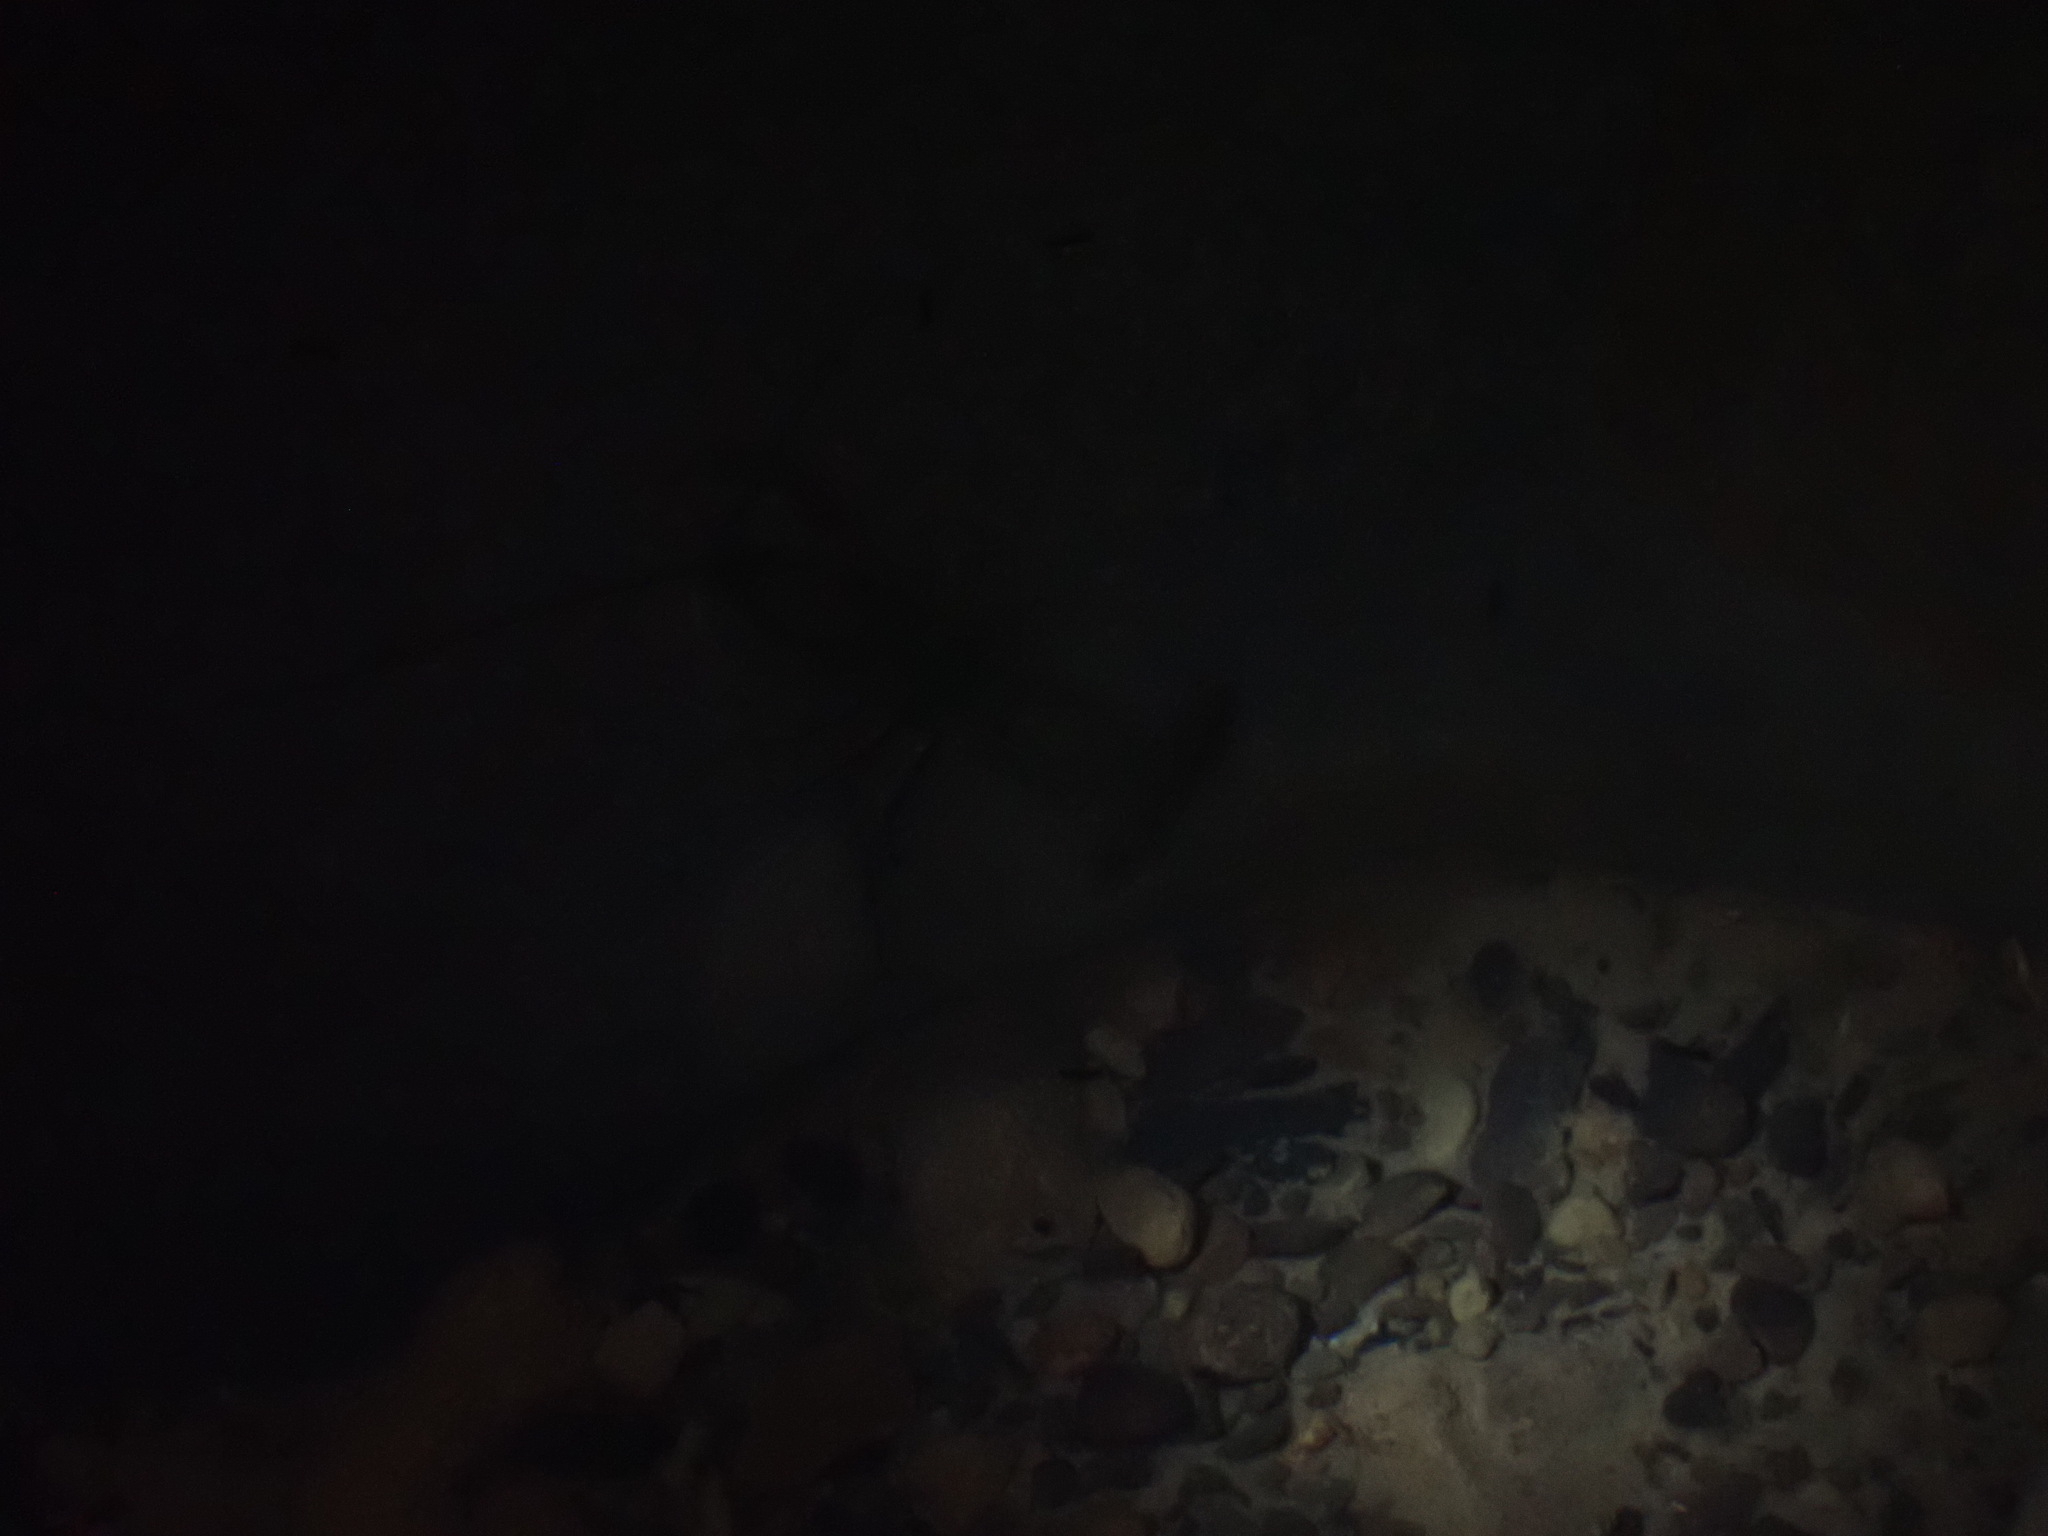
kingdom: Animalia
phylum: Arthropoda
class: Malacostraca
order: Decapoda
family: Cambaridae
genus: Cambarus
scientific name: Cambarus tenebrosus
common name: Cavespring crayfish
